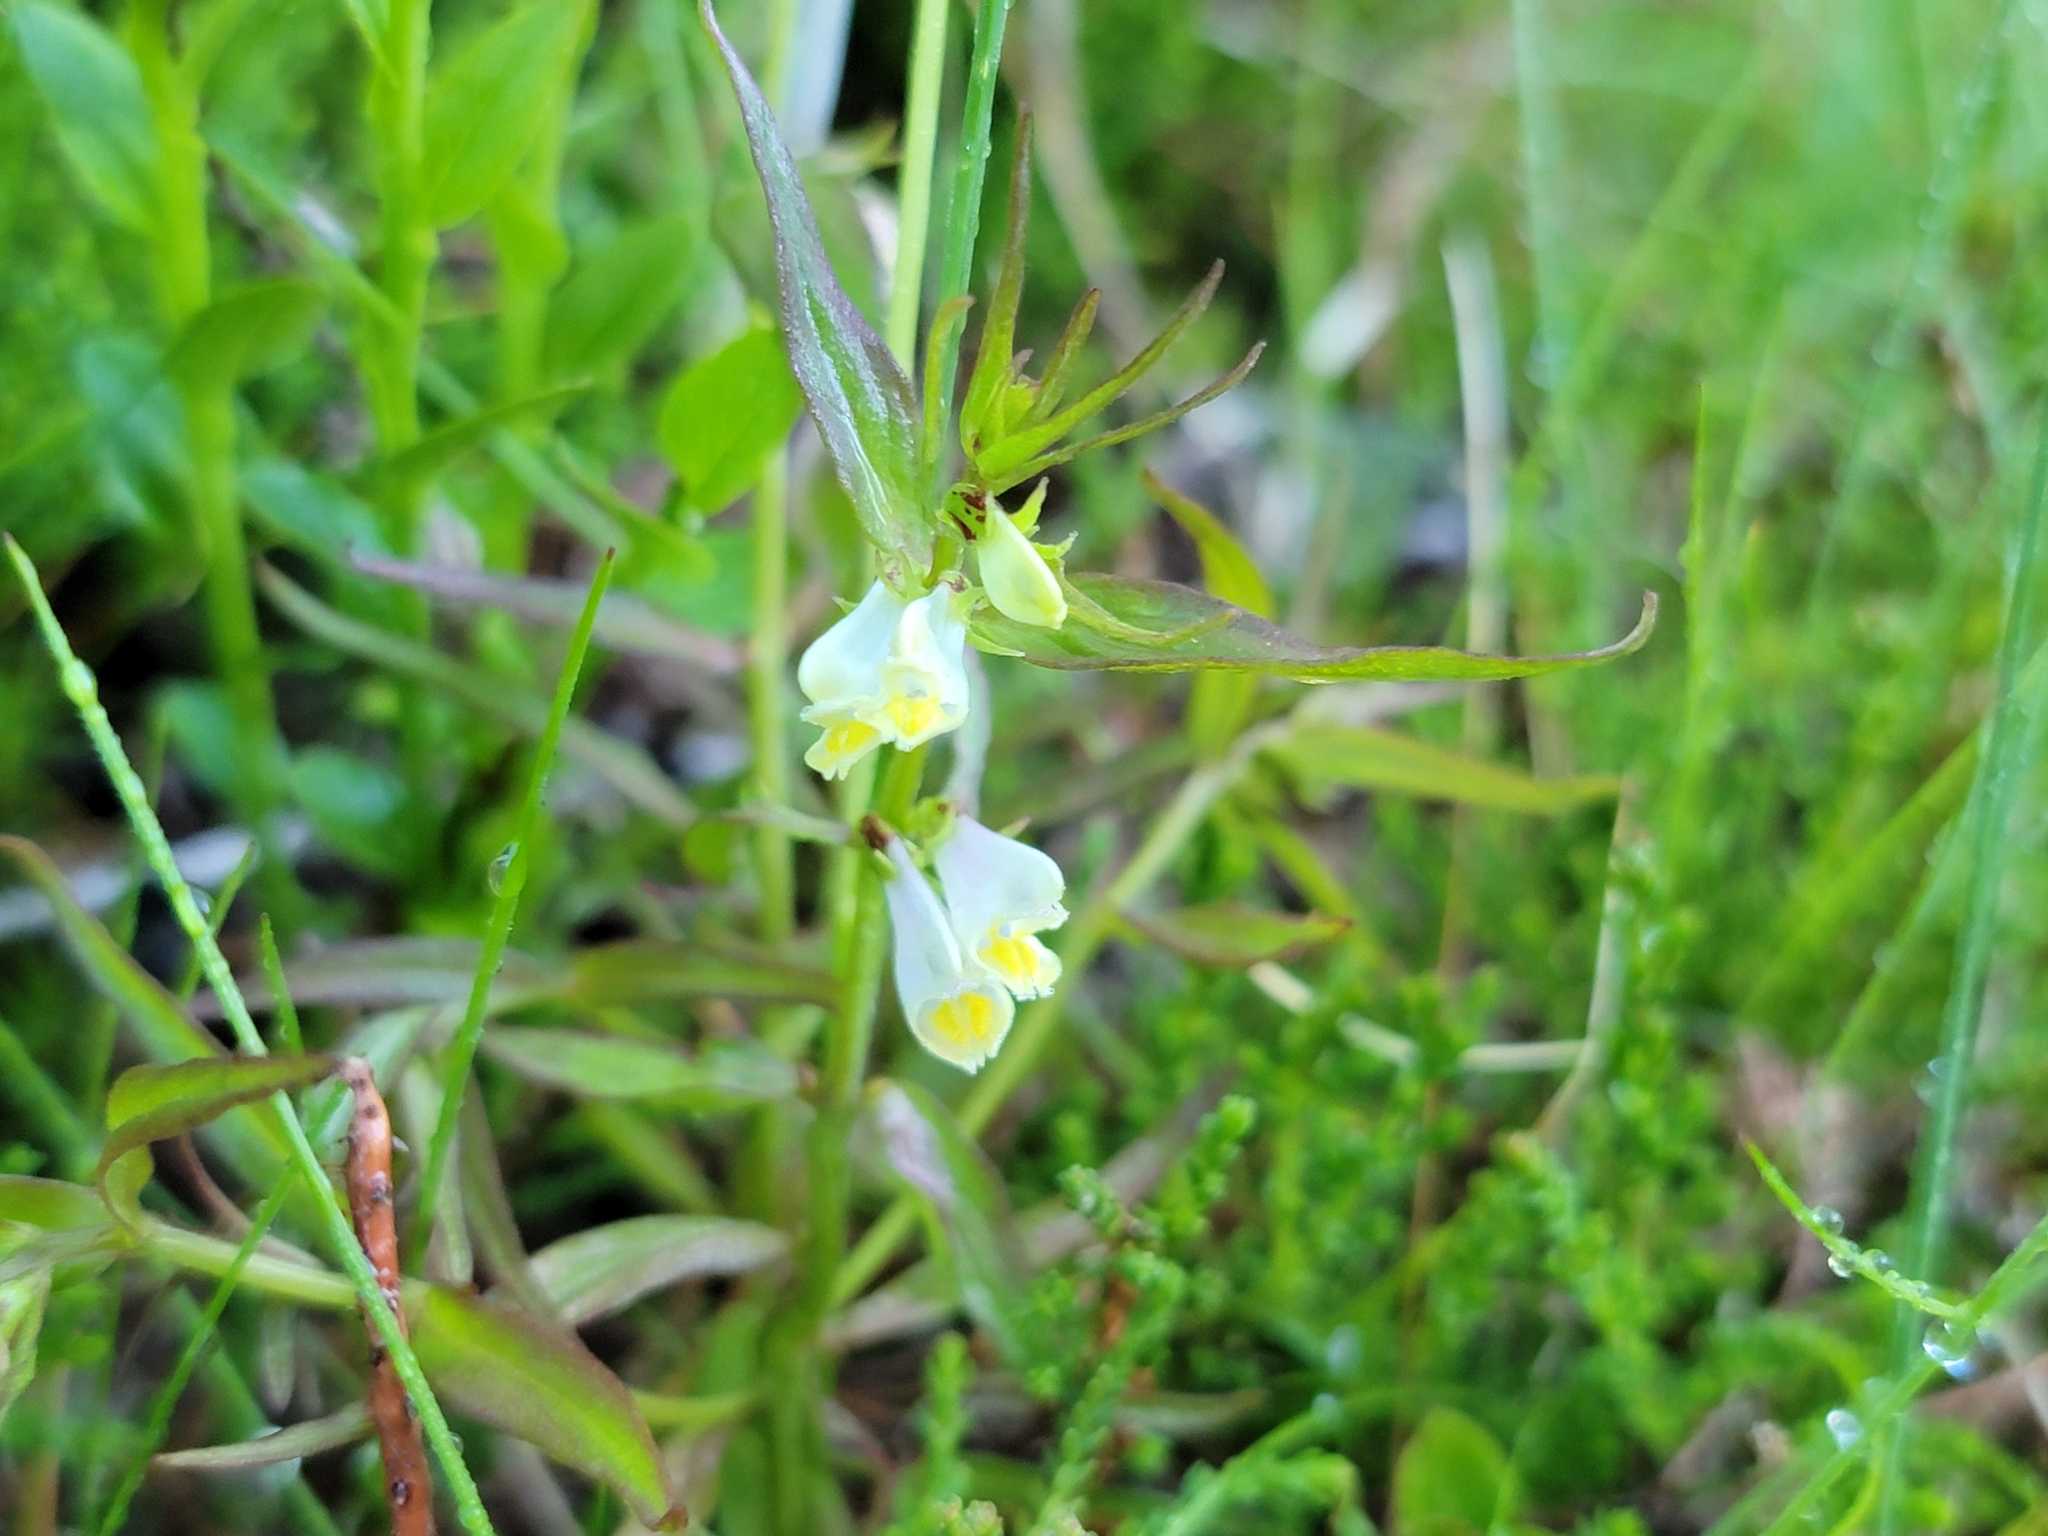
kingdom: Plantae
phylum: Tracheophyta
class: Magnoliopsida
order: Lamiales
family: Orobanchaceae
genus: Melampyrum
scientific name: Melampyrum pratense
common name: Common cow-wheat
